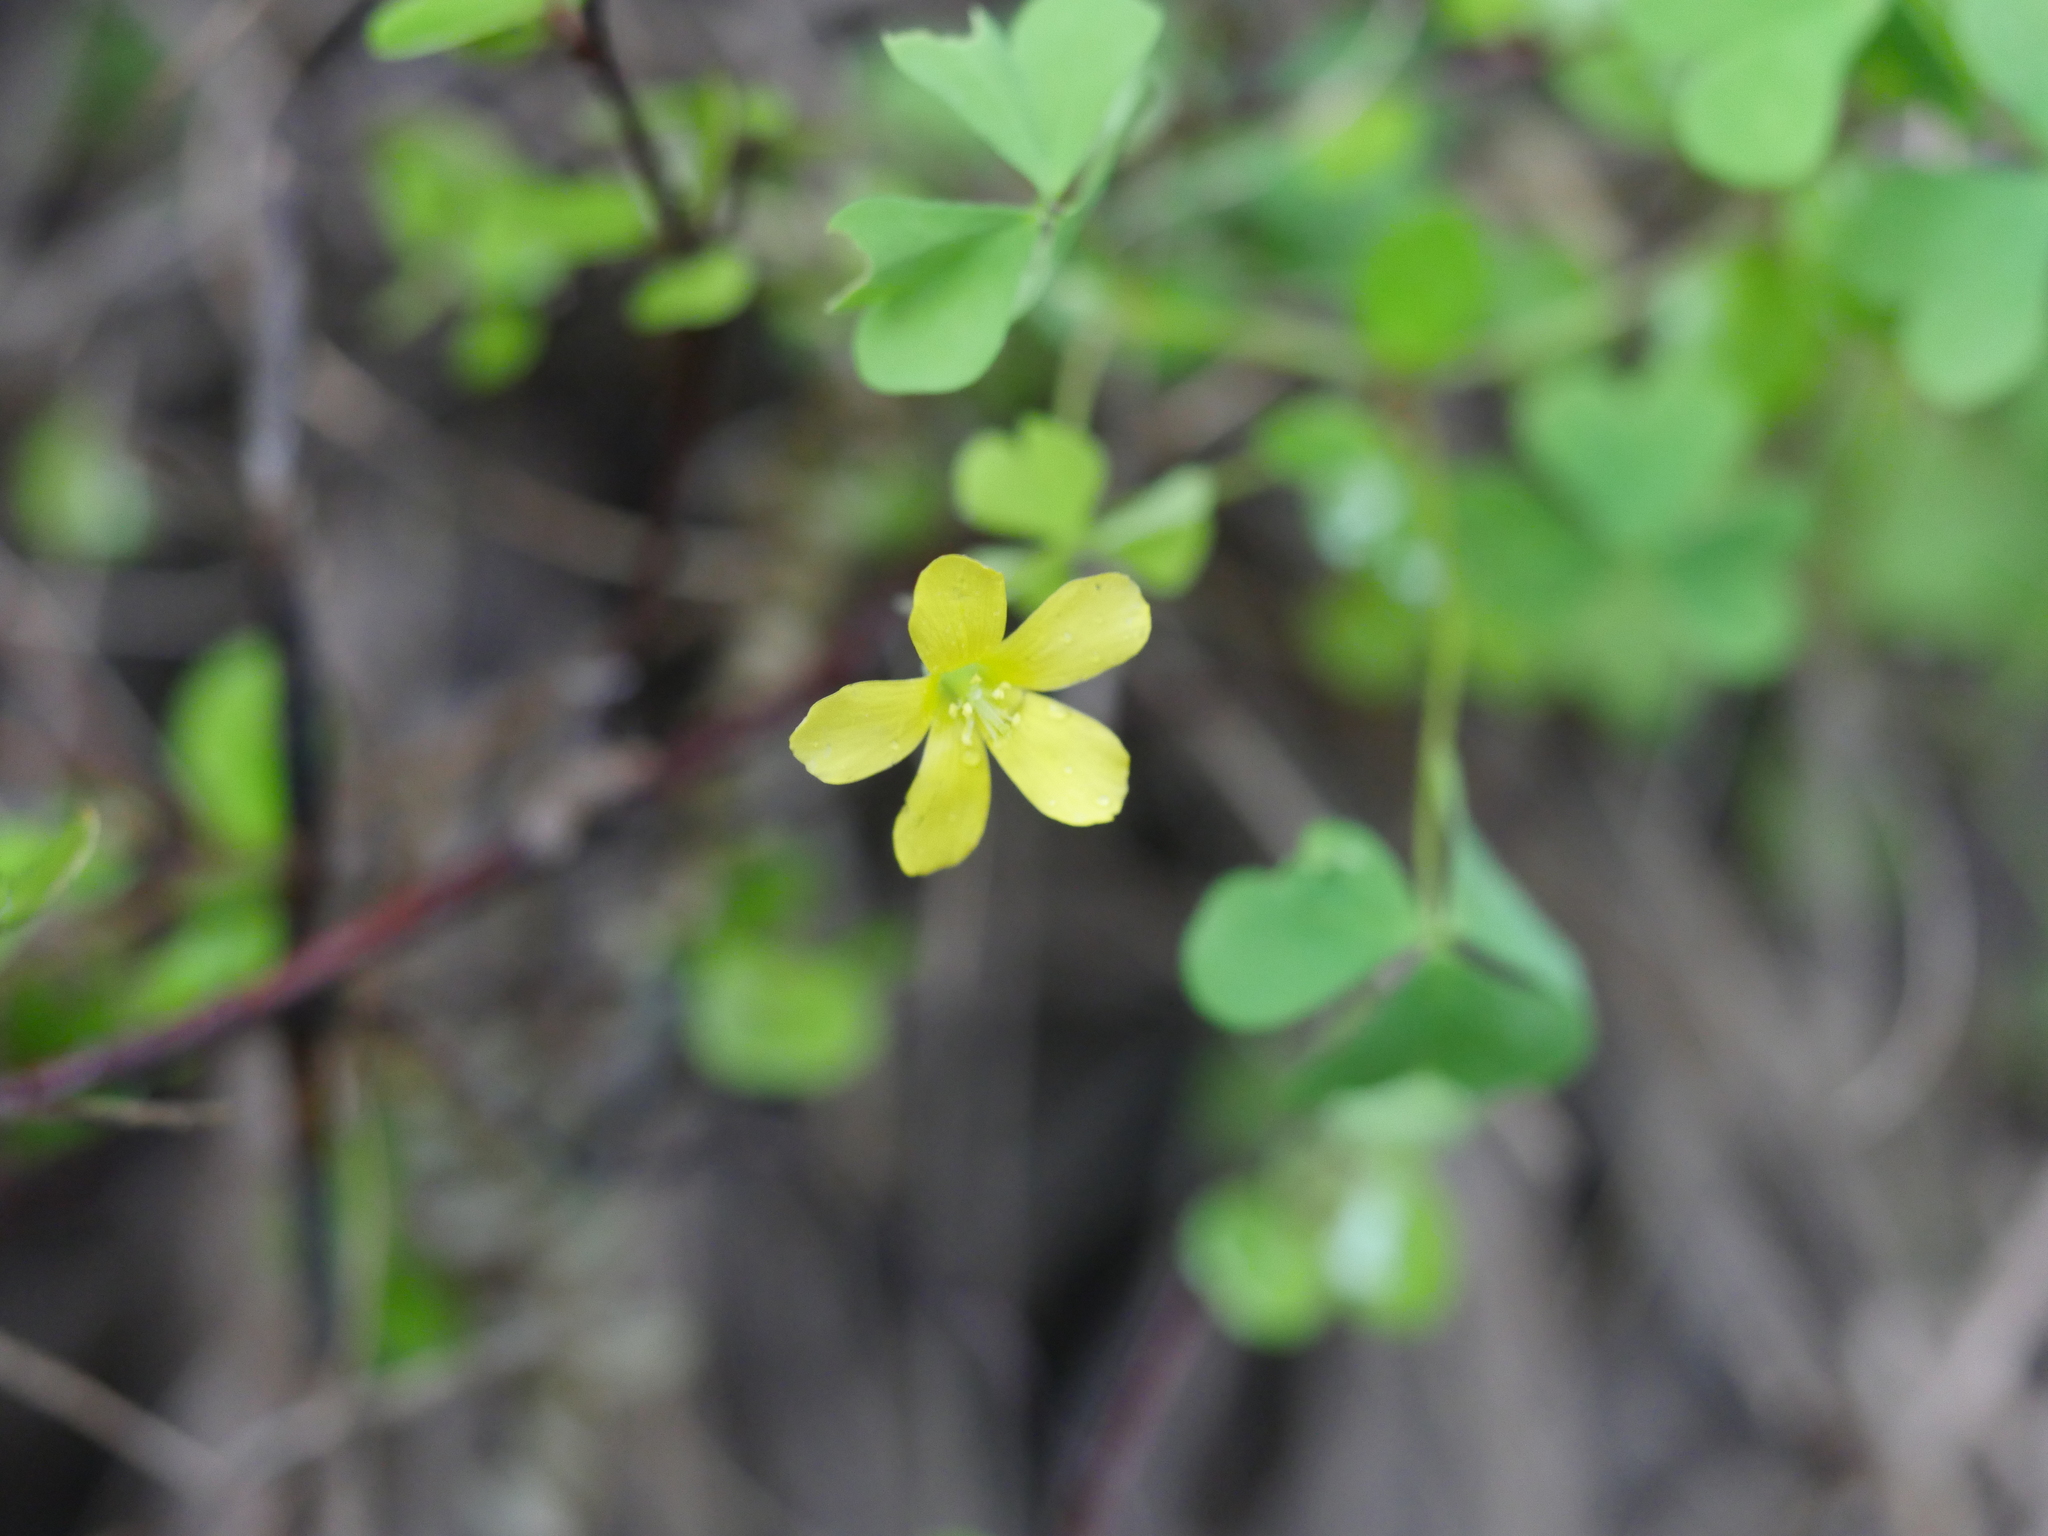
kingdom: Plantae
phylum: Tracheophyta
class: Magnoliopsida
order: Oxalidales
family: Oxalidaceae
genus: Oxalis
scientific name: Oxalis rubens
